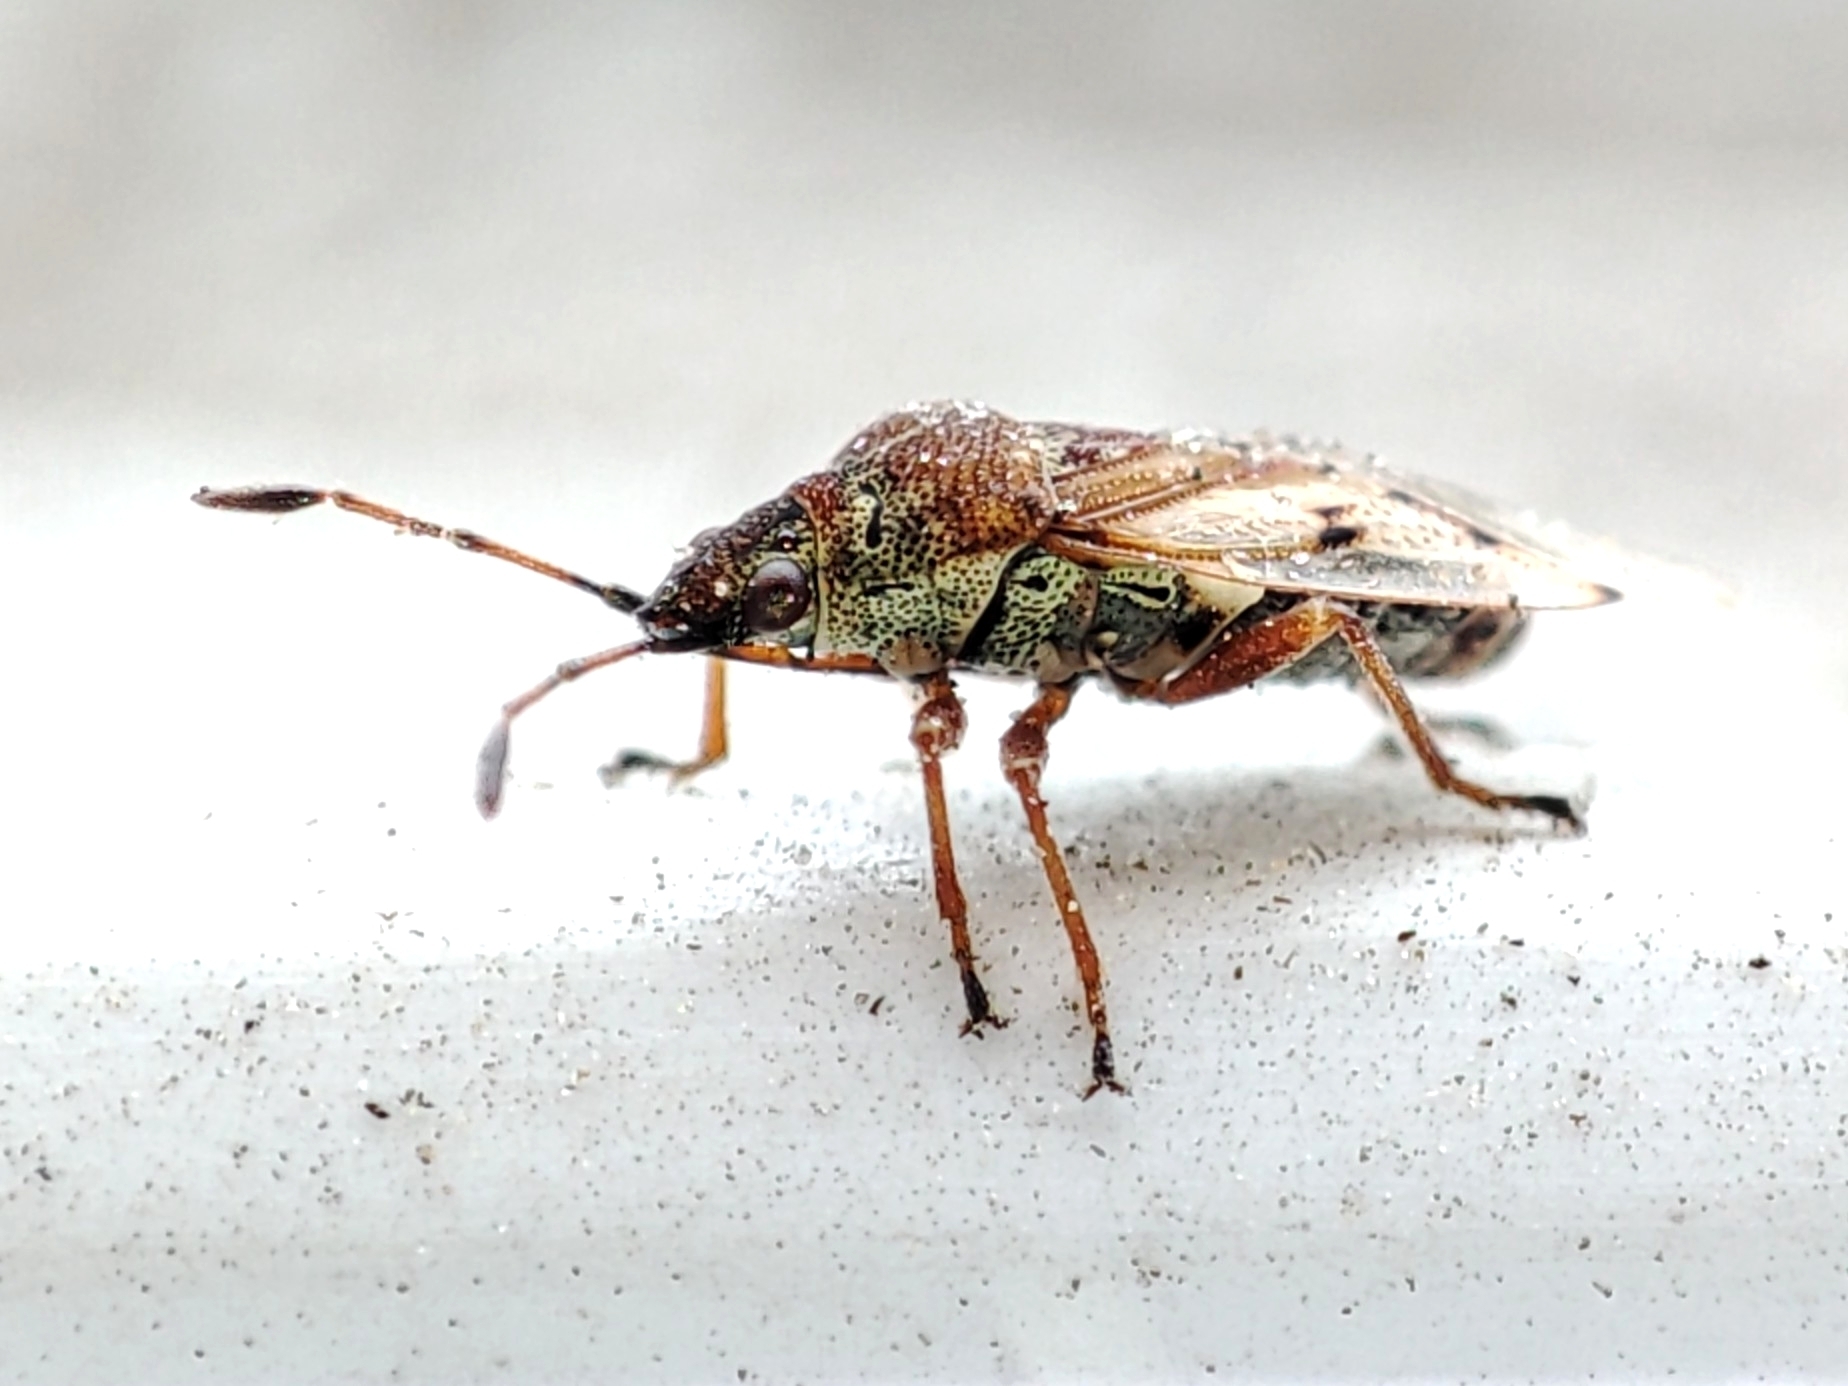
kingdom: Animalia
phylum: Arthropoda
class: Insecta
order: Hemiptera
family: Lygaeidae
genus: Kleidocerys
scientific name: Kleidocerys resedae
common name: Birch catkin bug
